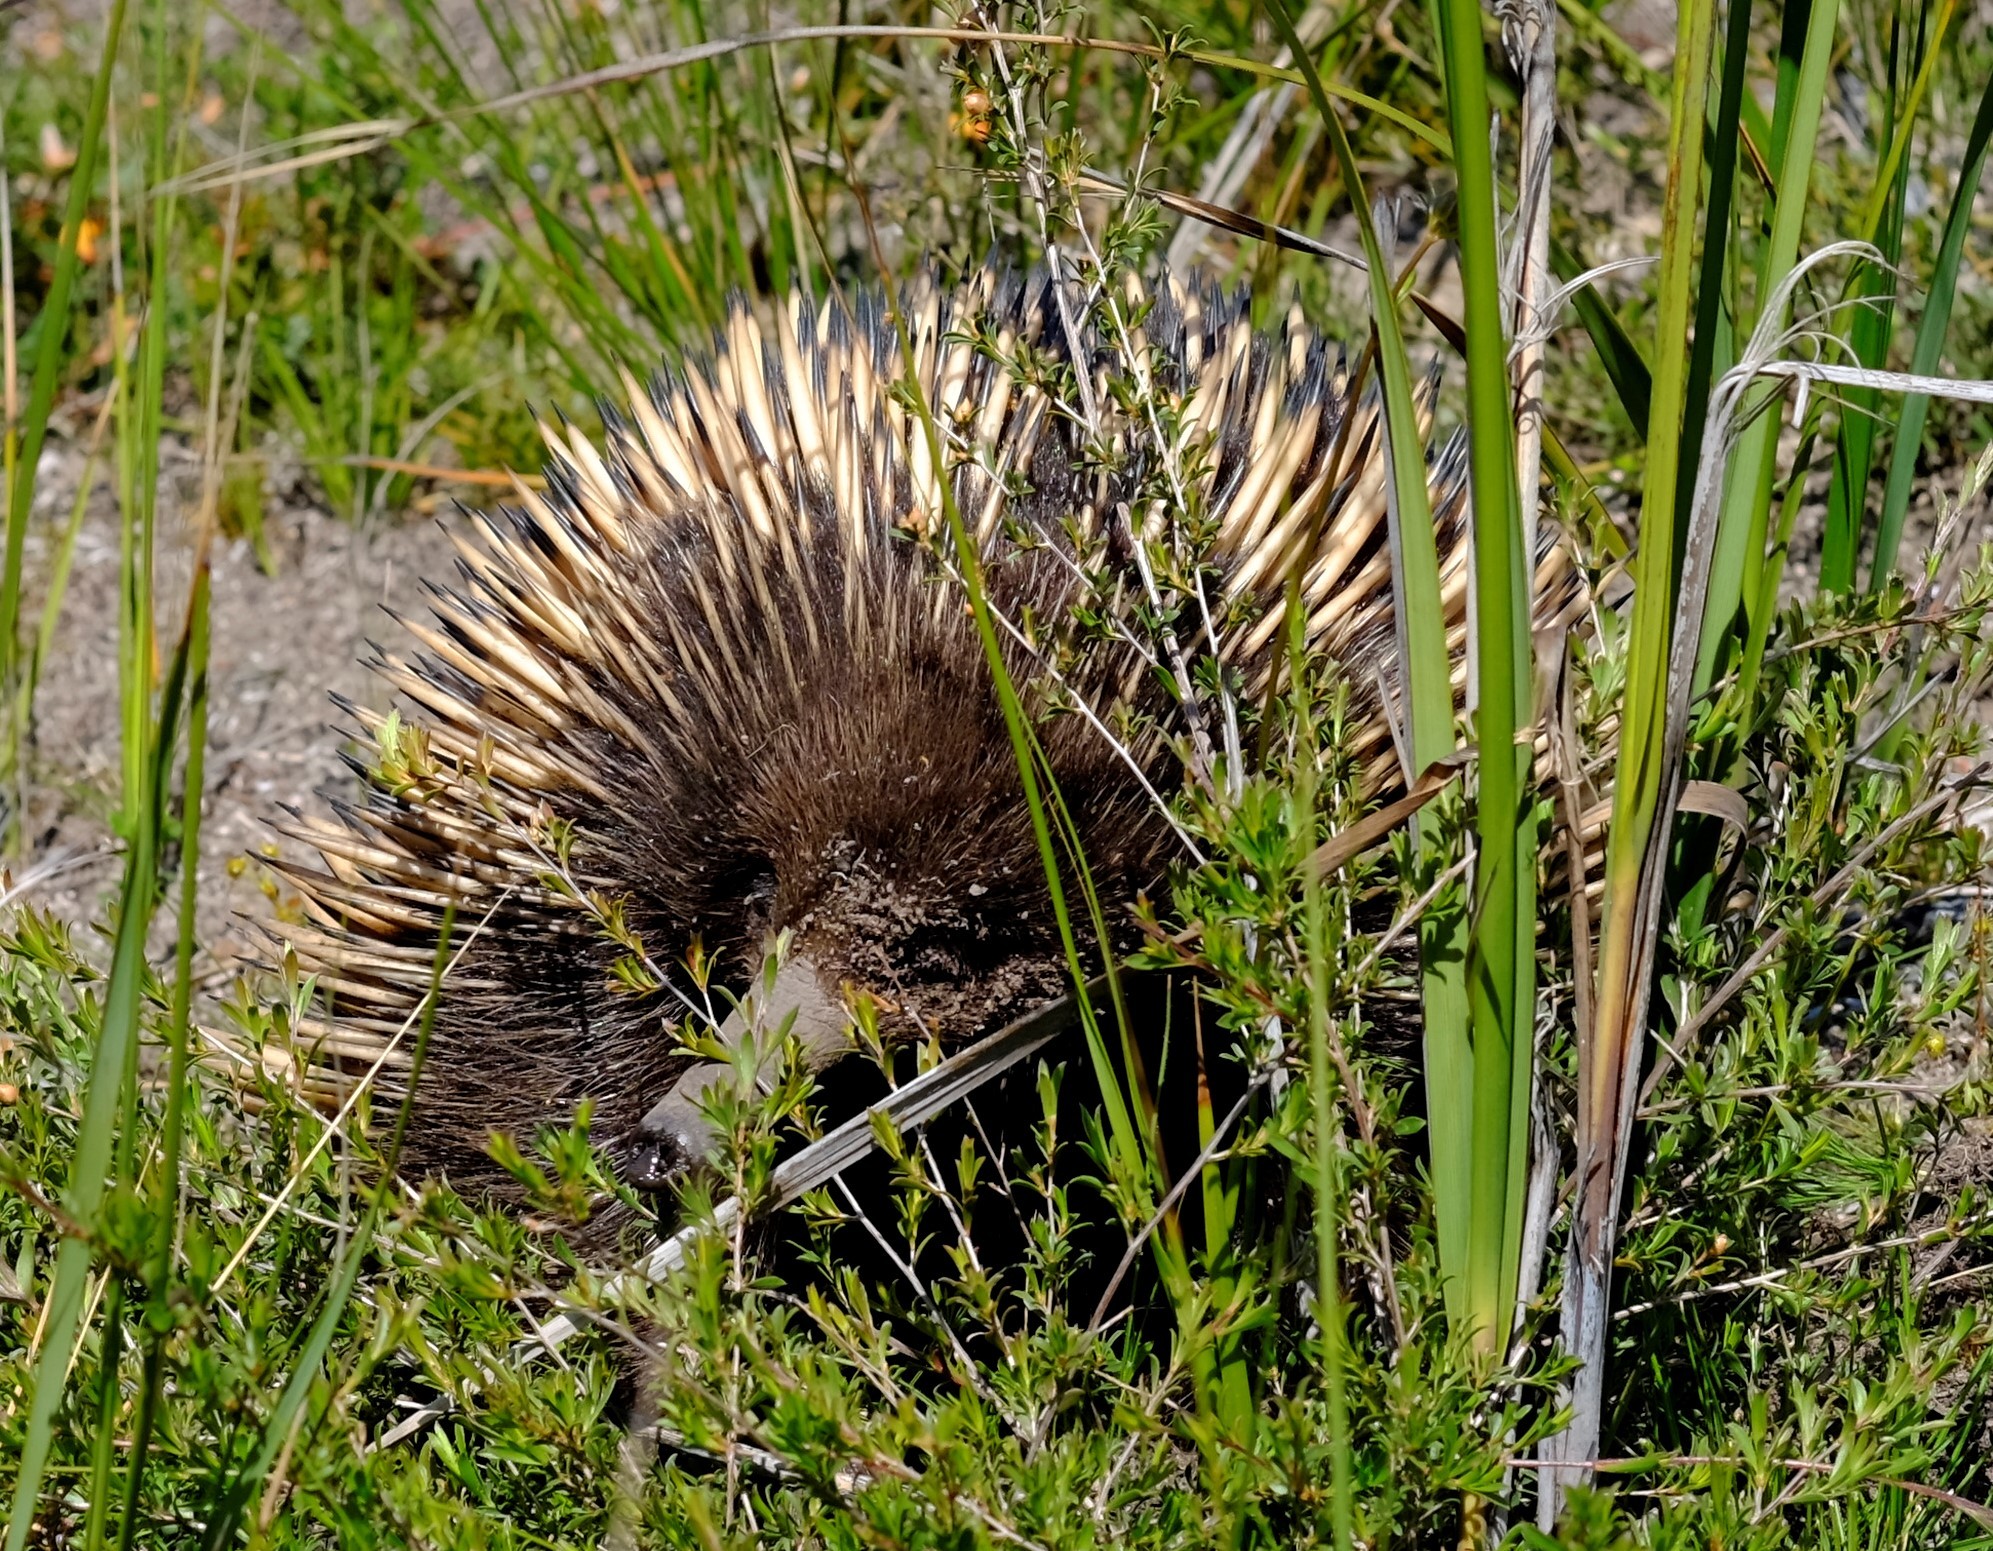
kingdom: Animalia
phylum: Chordata
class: Mammalia
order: Monotremata
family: Tachyglossidae
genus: Tachyglossus
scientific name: Tachyglossus aculeatus
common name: Short-beaked echidna
